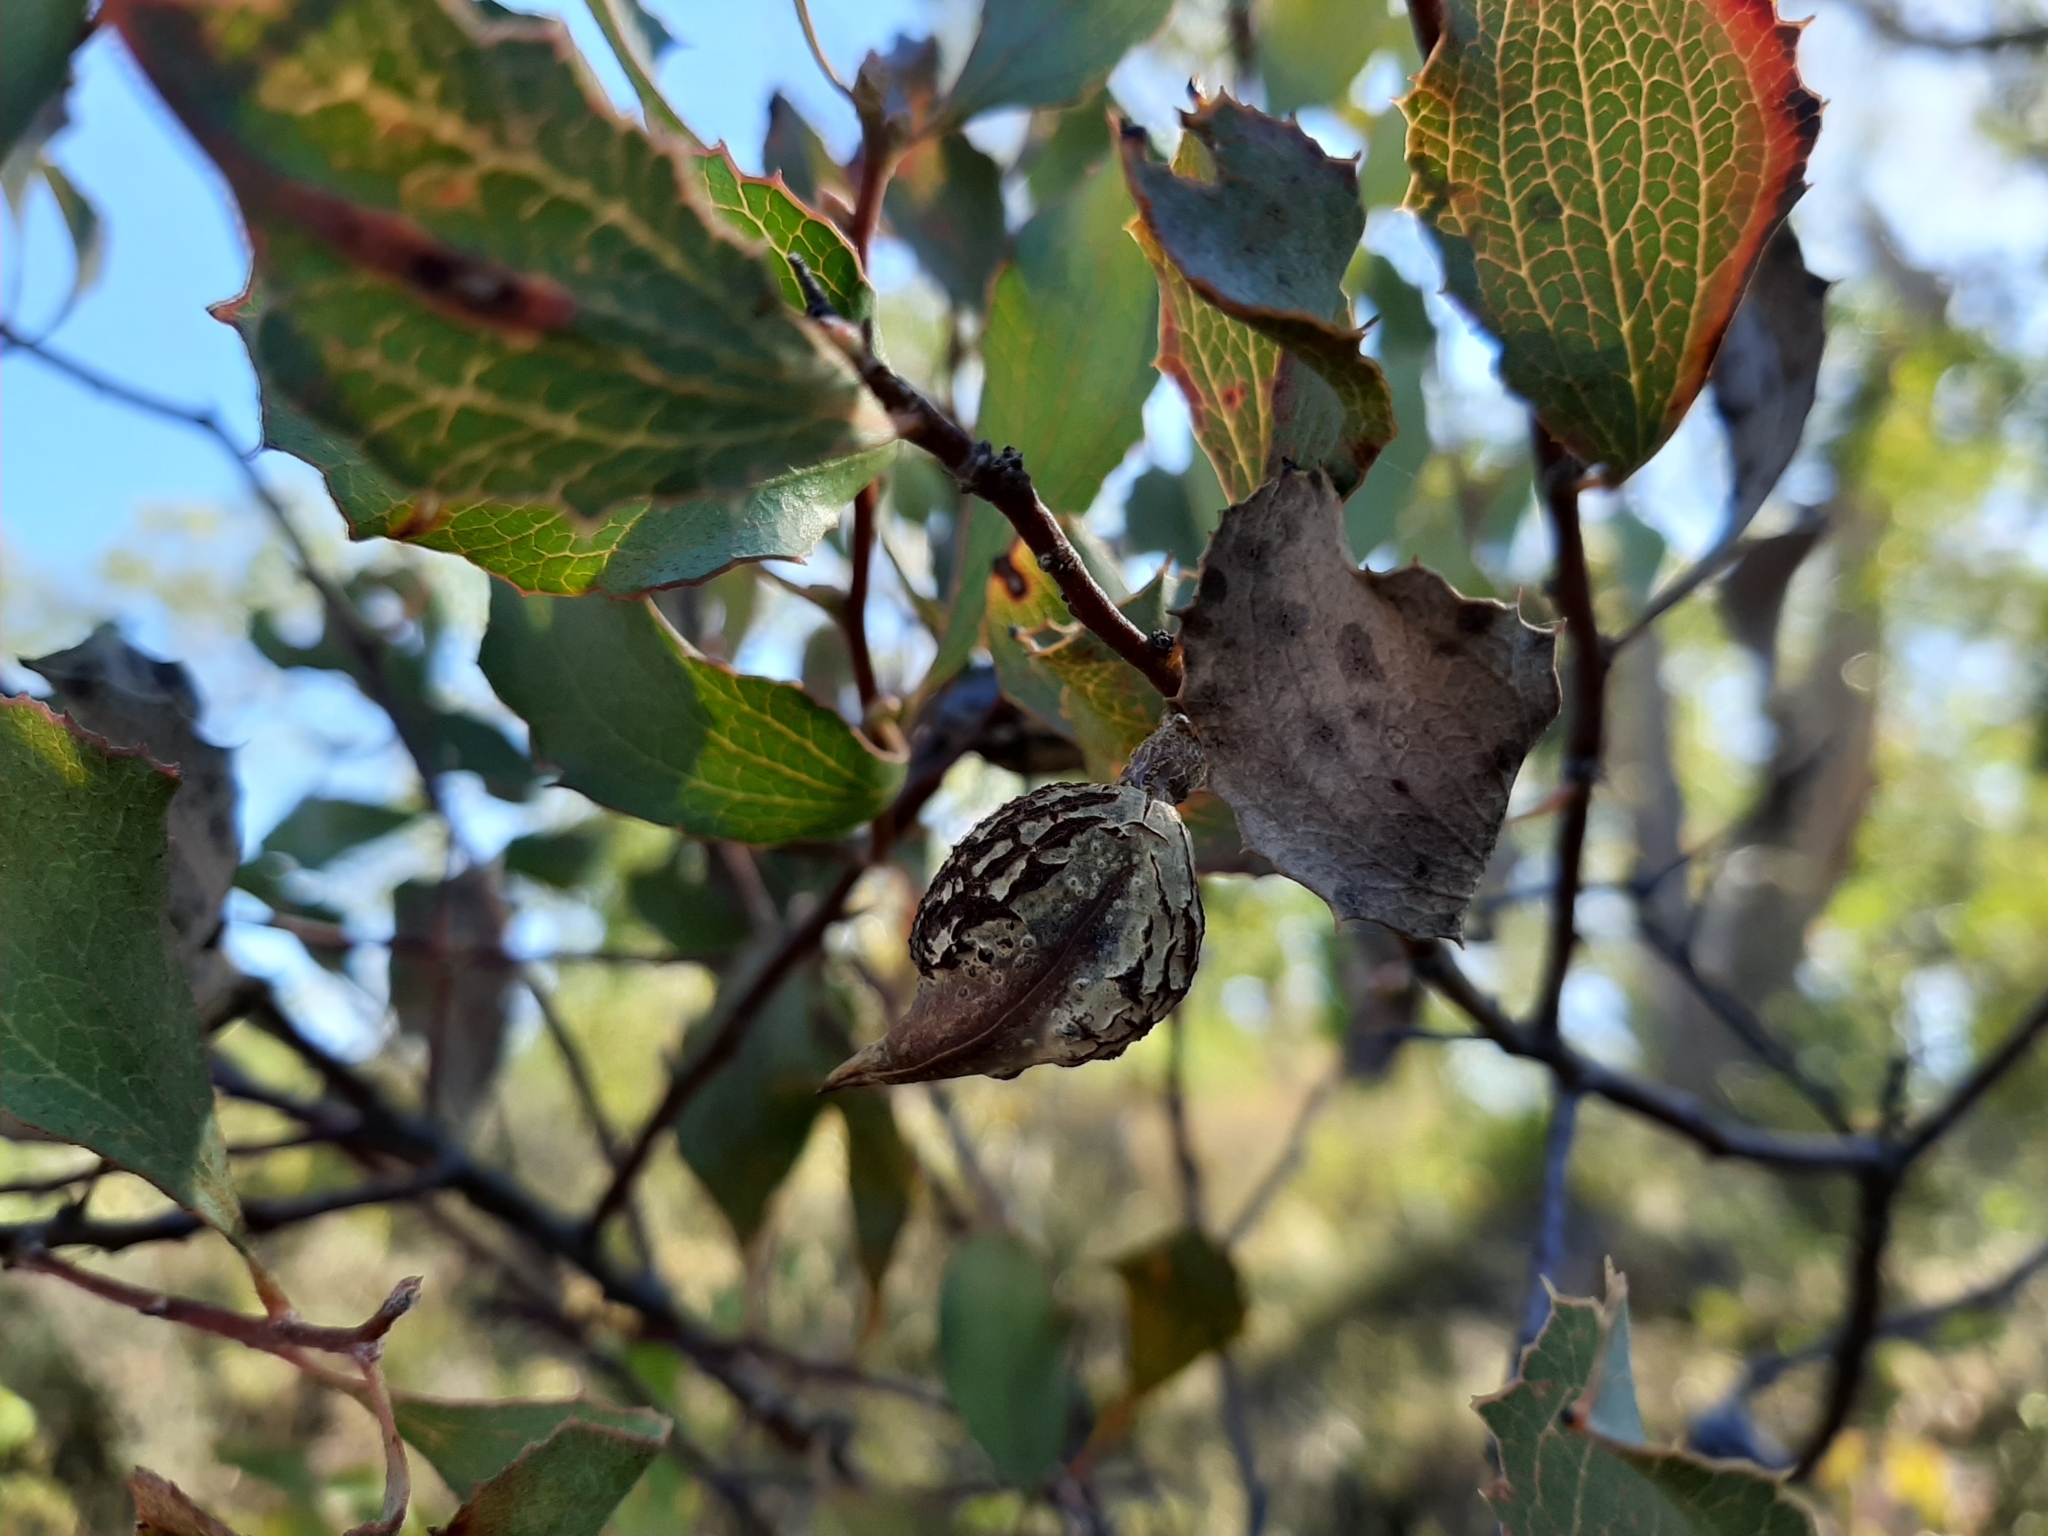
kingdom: Plantae
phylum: Tracheophyta
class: Magnoliopsida
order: Proteales
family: Proteaceae
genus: Hakea
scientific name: Hakea undulata
